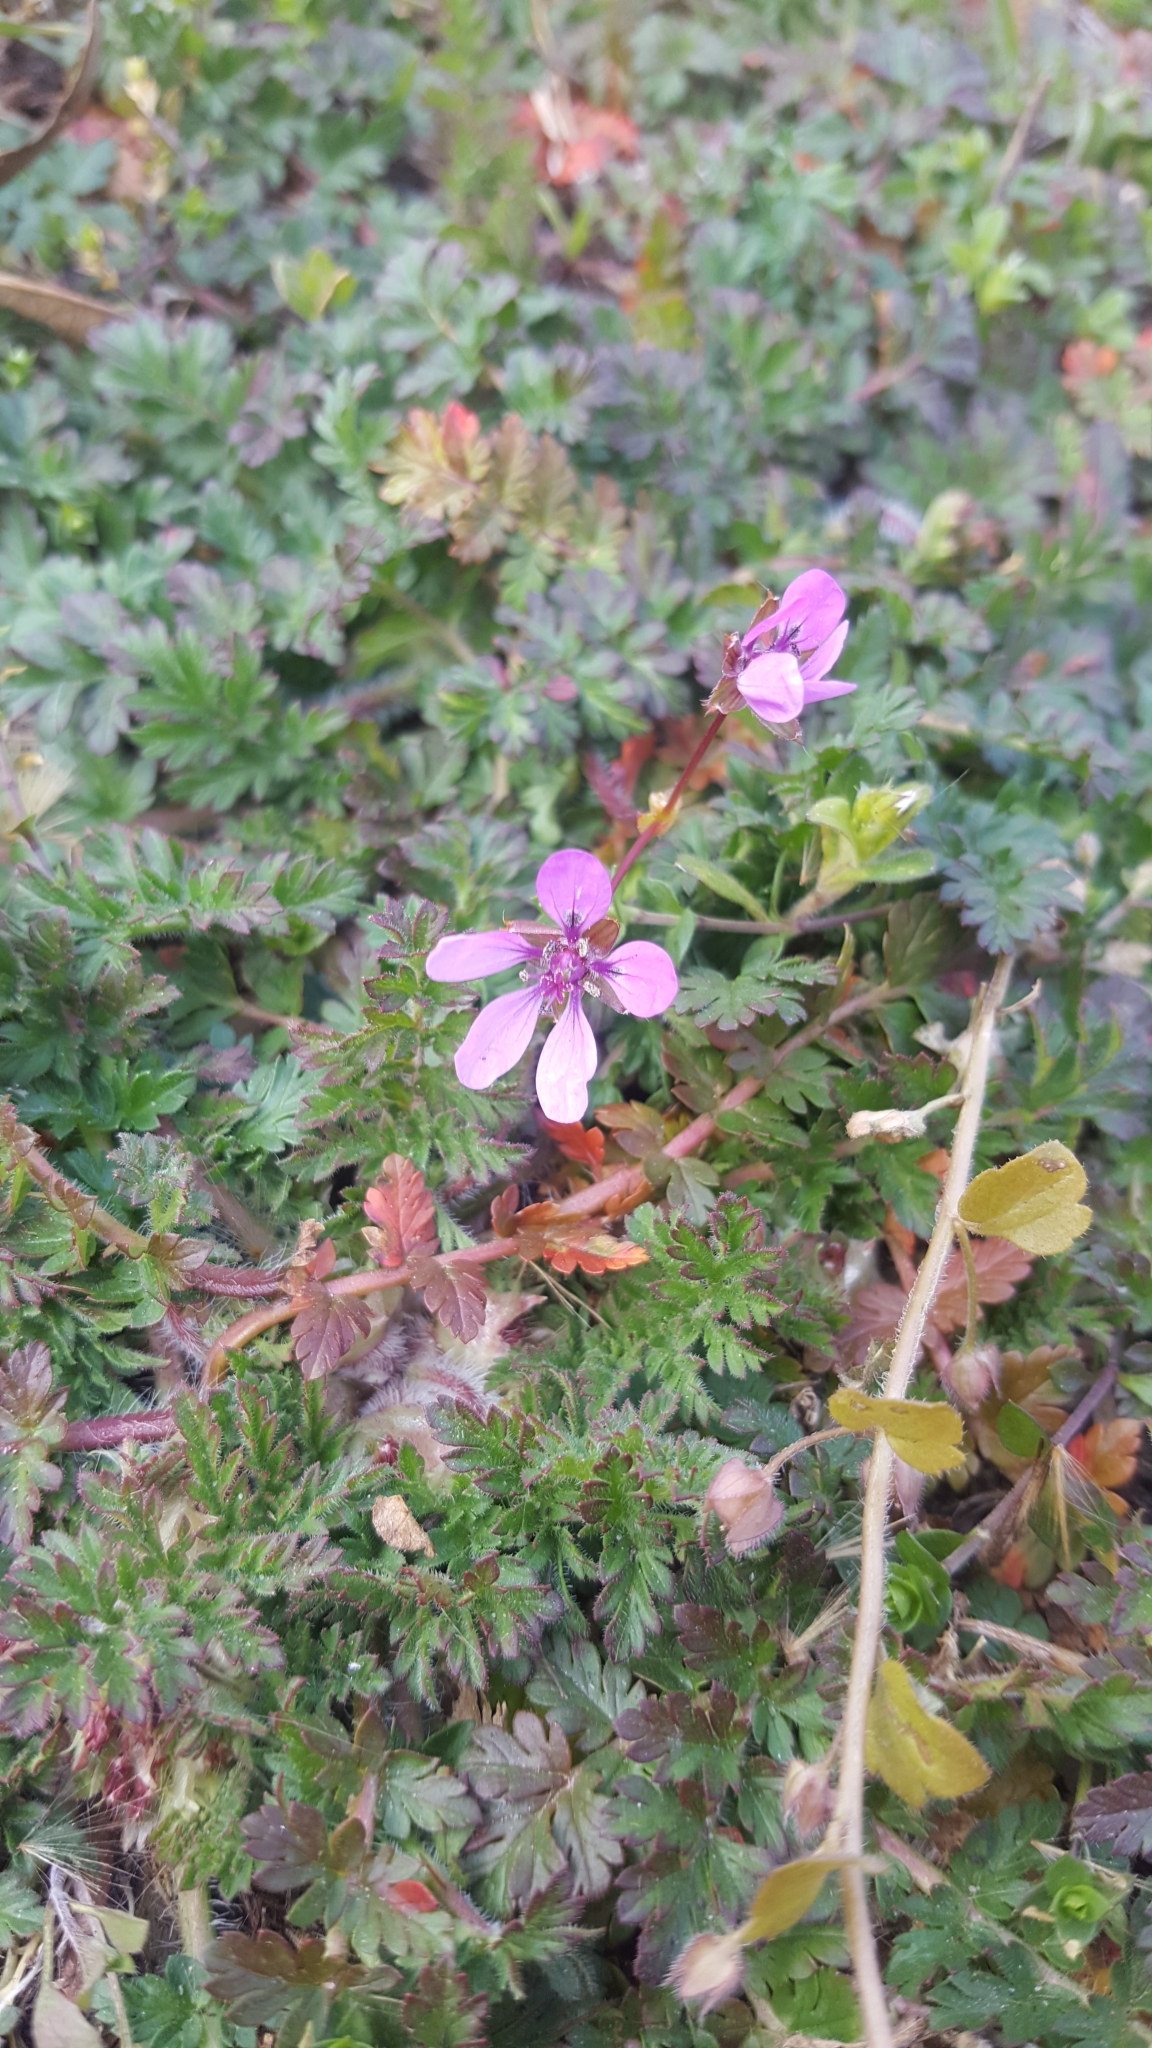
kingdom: Plantae
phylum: Tracheophyta
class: Magnoliopsida
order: Geraniales
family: Geraniaceae
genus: Erodium
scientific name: Erodium cicutarium
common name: Common stork's-bill
